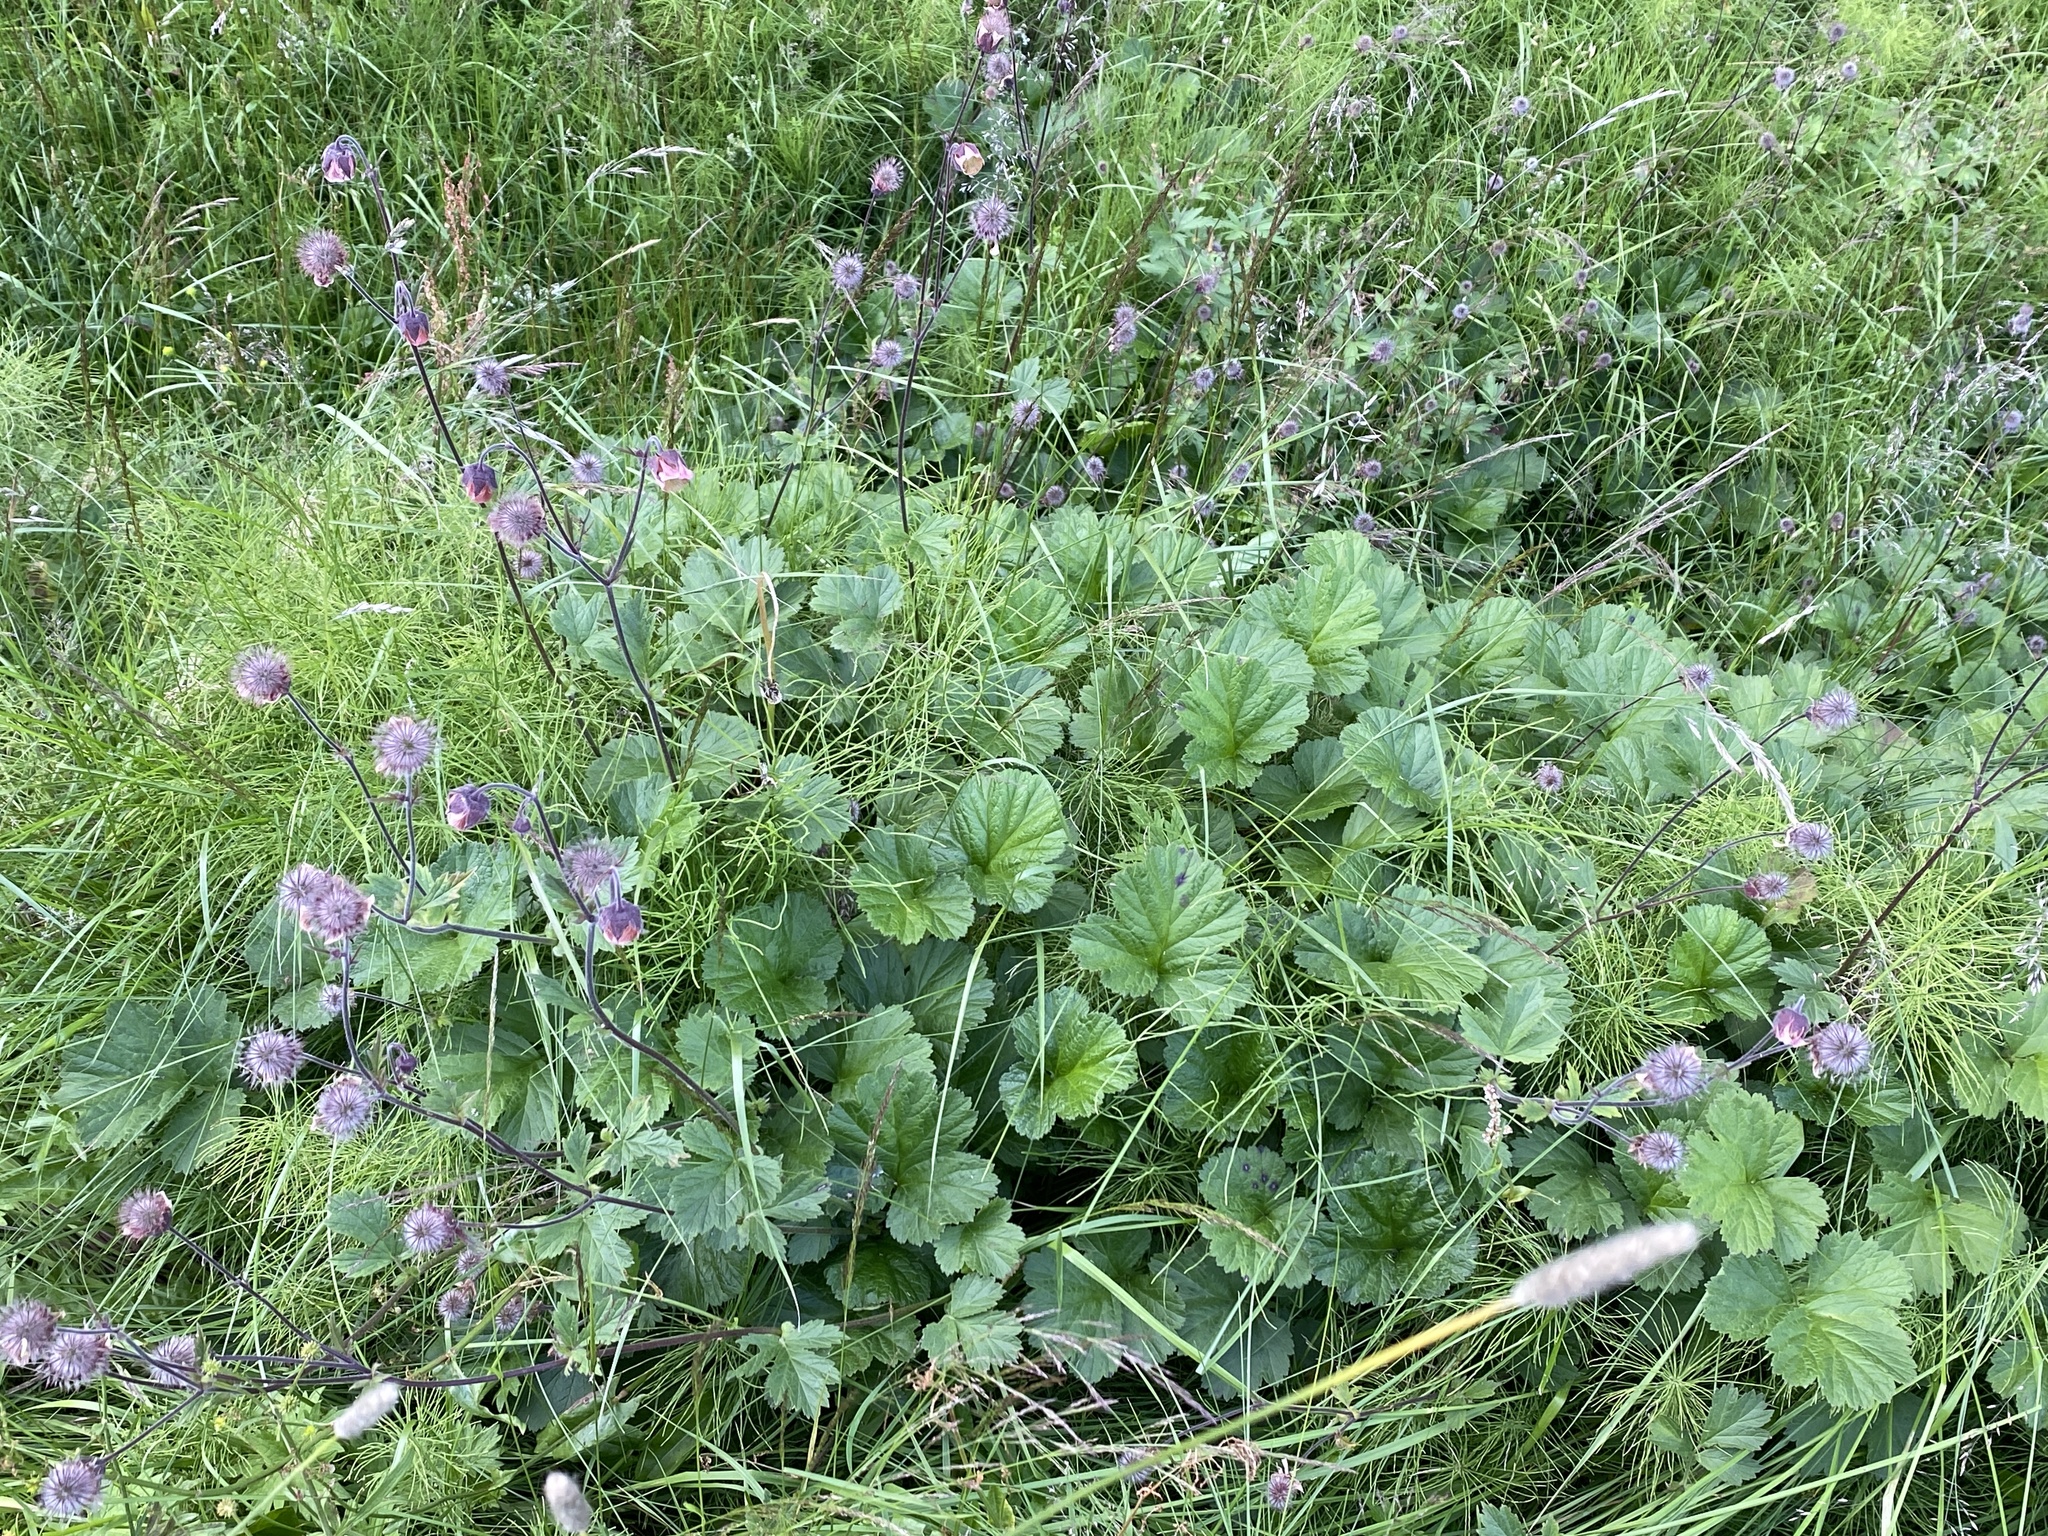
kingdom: Plantae
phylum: Tracheophyta
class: Magnoliopsida
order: Rosales
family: Rosaceae
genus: Geum
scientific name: Geum rivale
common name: Water avens
